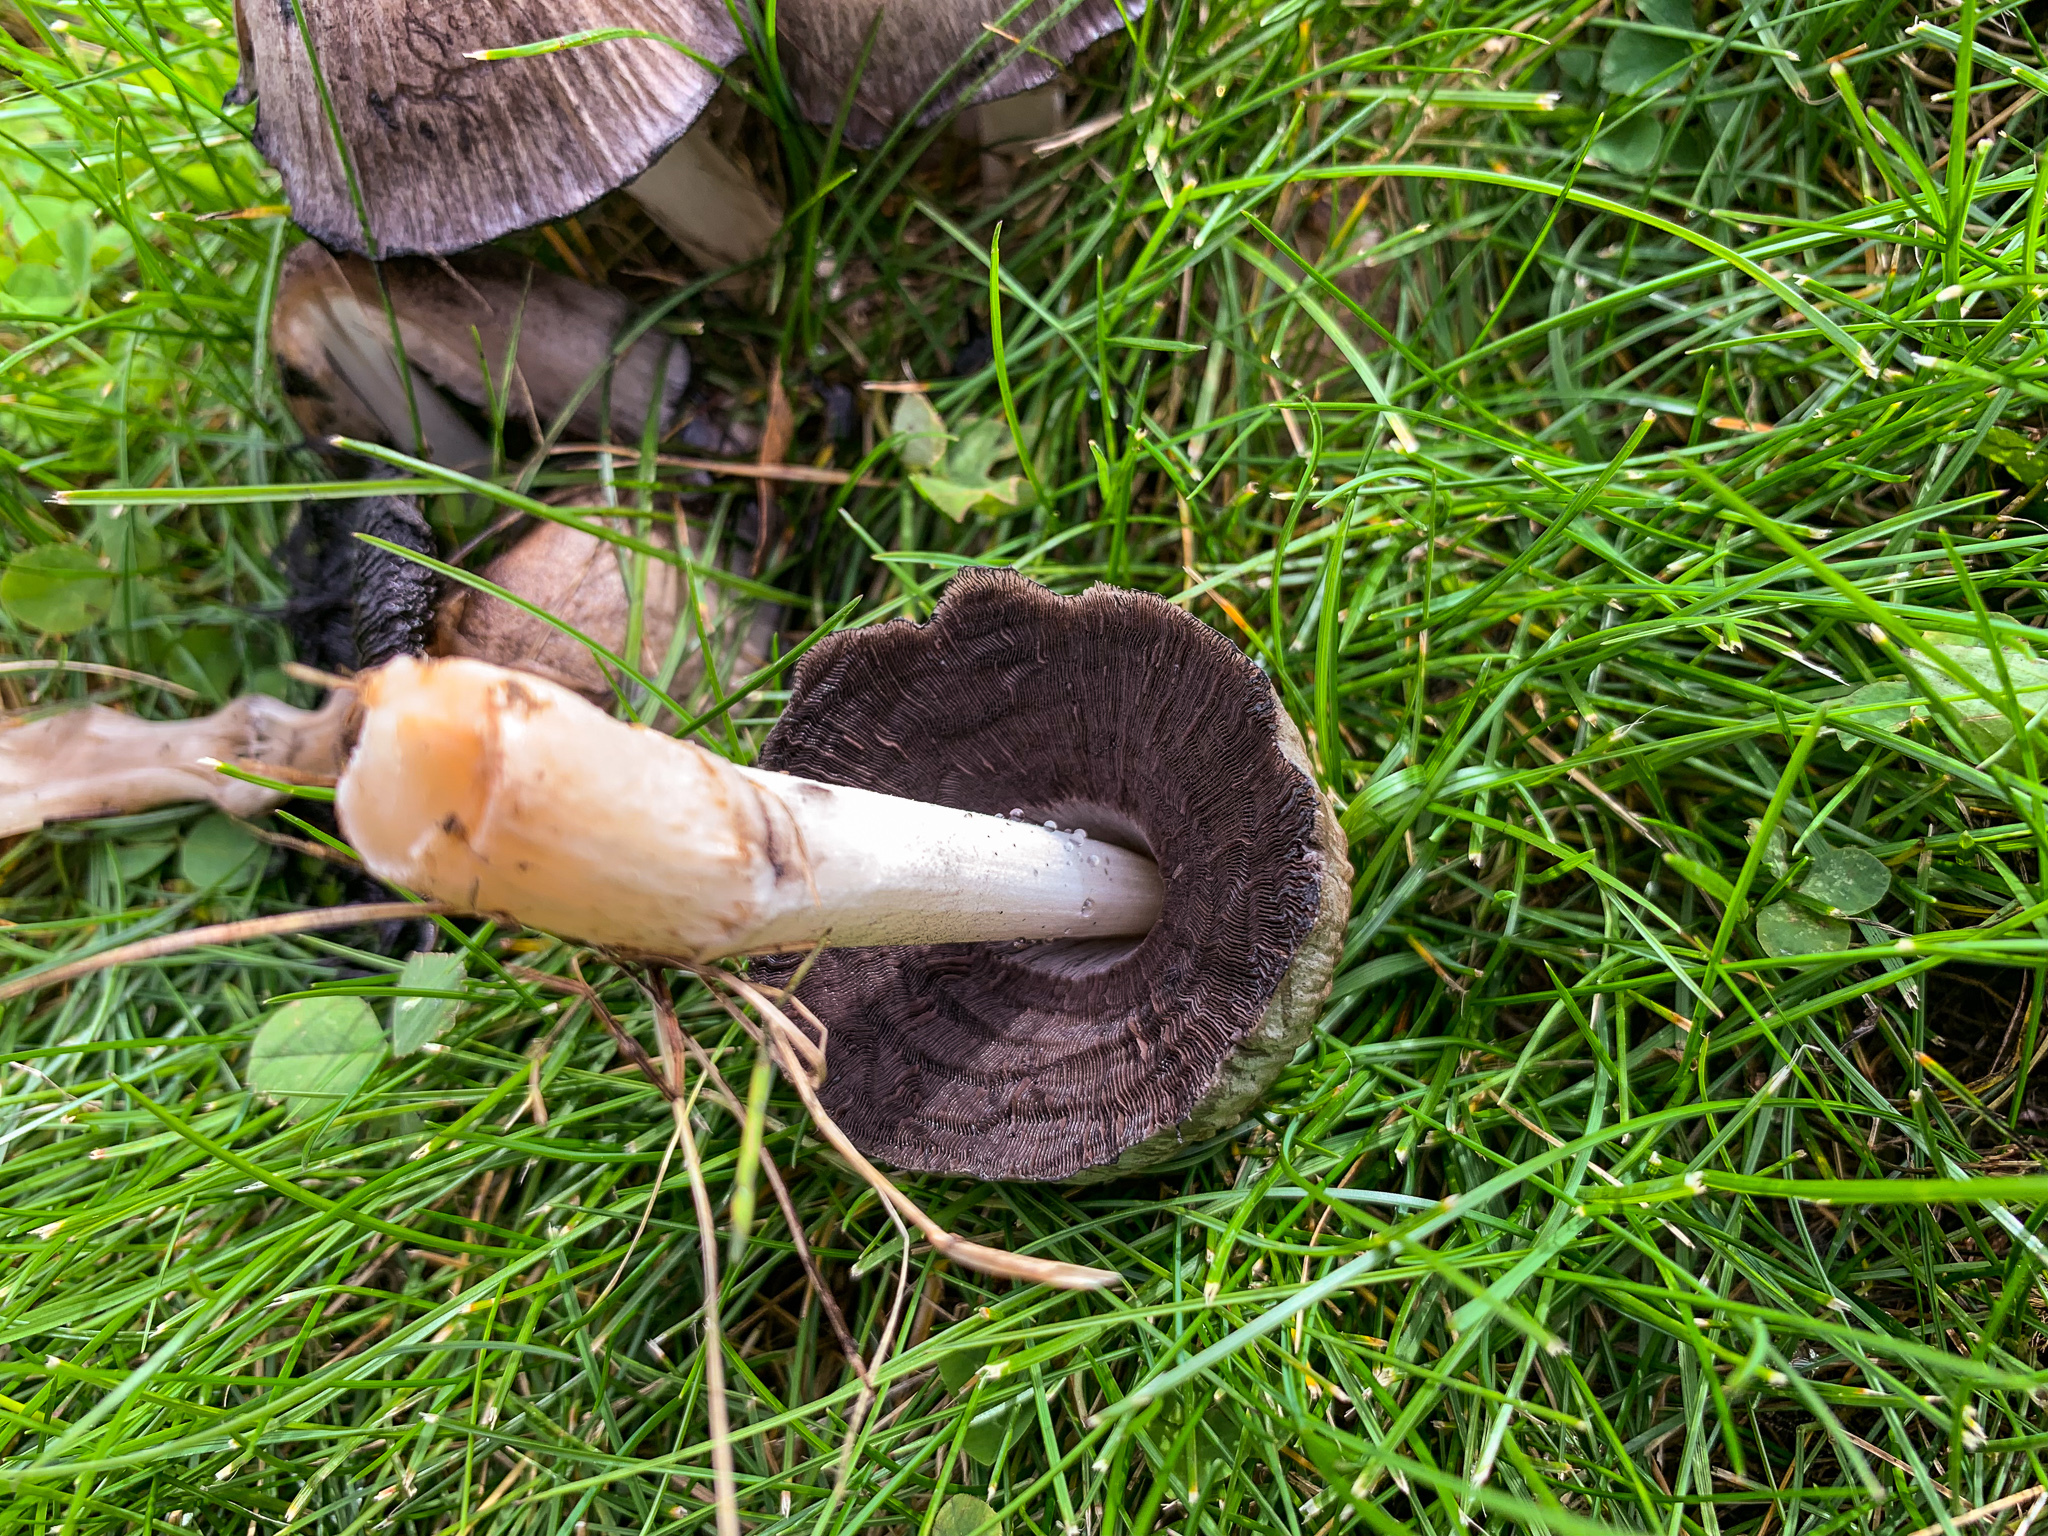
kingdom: Fungi
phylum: Basidiomycota
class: Agaricomycetes
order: Agaricales
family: Psathyrellaceae
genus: Coprinopsis
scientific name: Coprinopsis atramentaria
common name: Common ink-cap
